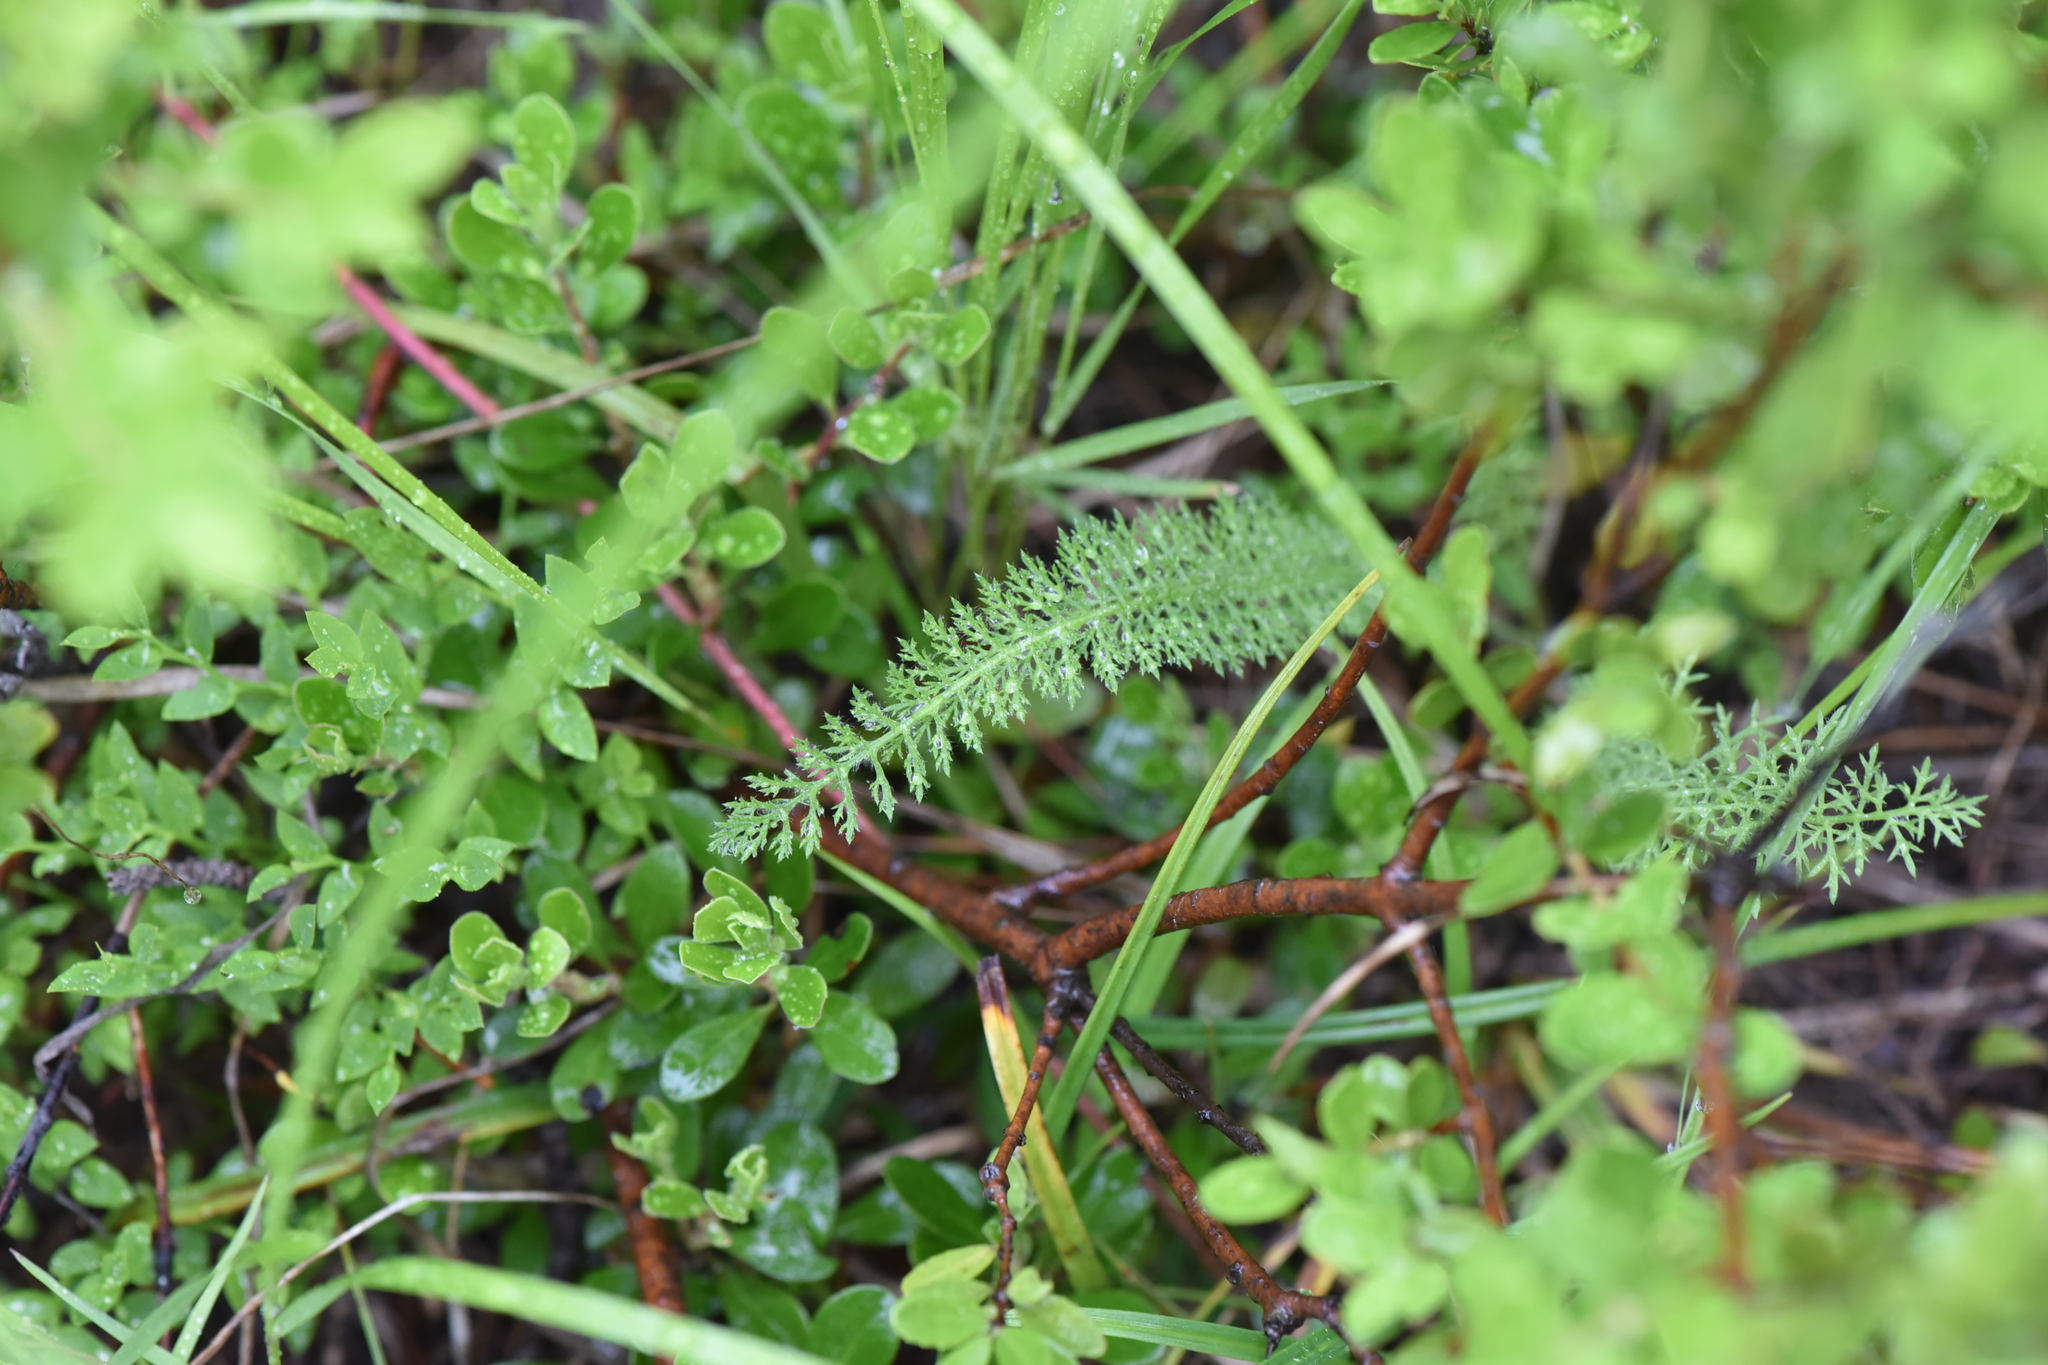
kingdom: Plantae
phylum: Tracheophyta
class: Magnoliopsida
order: Asterales
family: Asteraceae
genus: Achillea
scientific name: Achillea millefolium
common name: Yarrow
